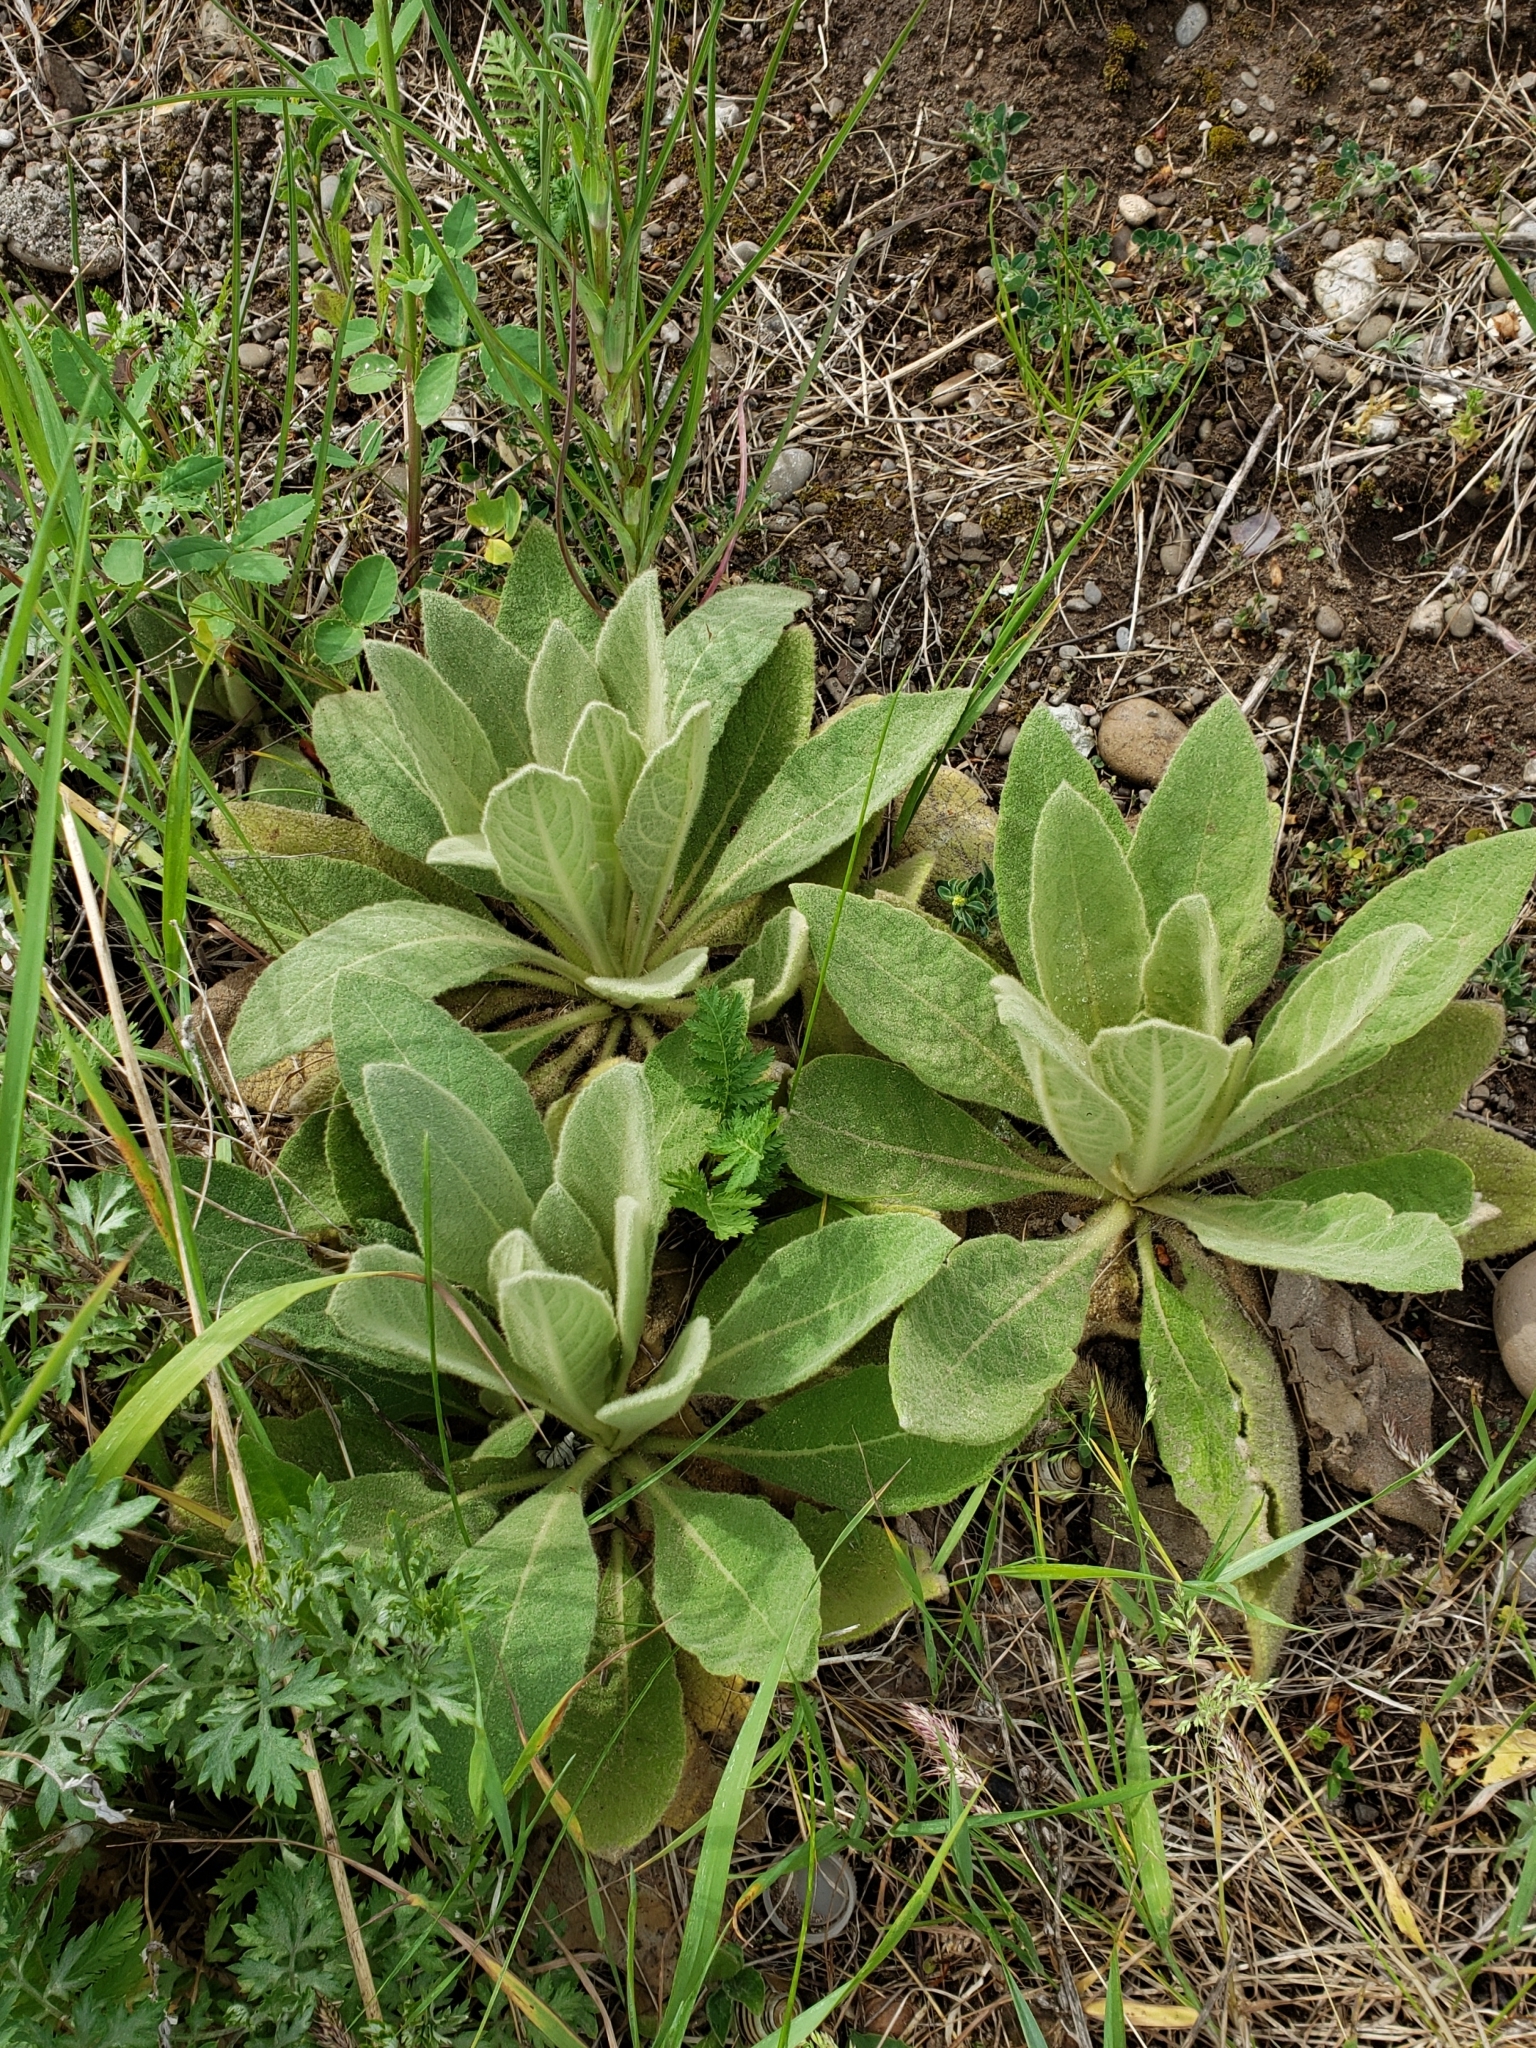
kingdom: Plantae
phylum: Tracheophyta
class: Magnoliopsida
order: Lamiales
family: Scrophulariaceae
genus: Verbascum
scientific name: Verbascum thapsus
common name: Common mullein
